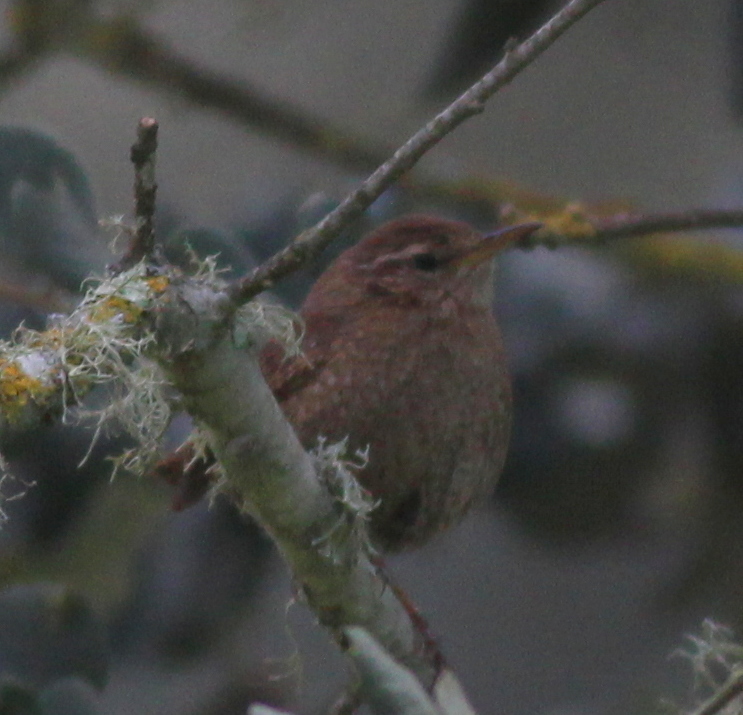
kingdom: Animalia
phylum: Chordata
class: Aves
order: Passeriformes
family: Troglodytidae
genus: Troglodytes
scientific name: Troglodytes troglodytes
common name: Eurasian wren
